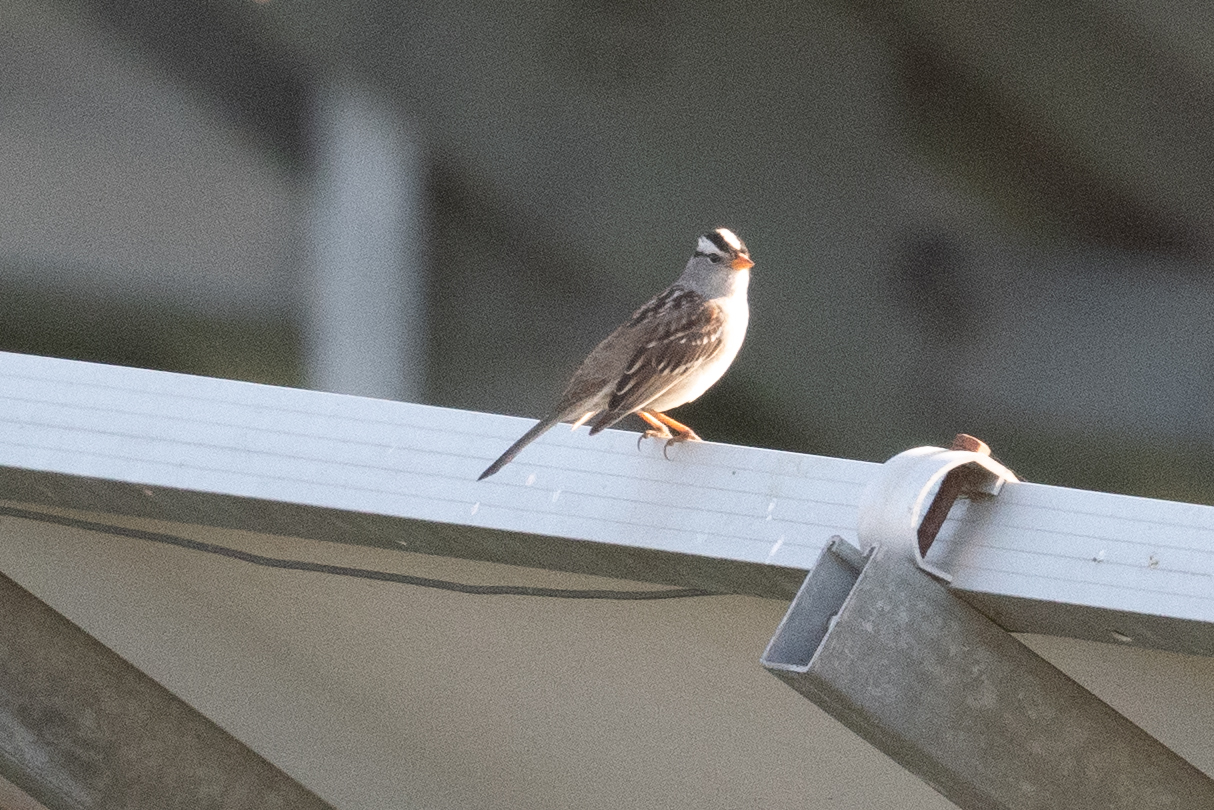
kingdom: Animalia
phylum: Chordata
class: Aves
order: Passeriformes
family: Passerellidae
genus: Zonotrichia
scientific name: Zonotrichia leucophrys
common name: White-crowned sparrow
